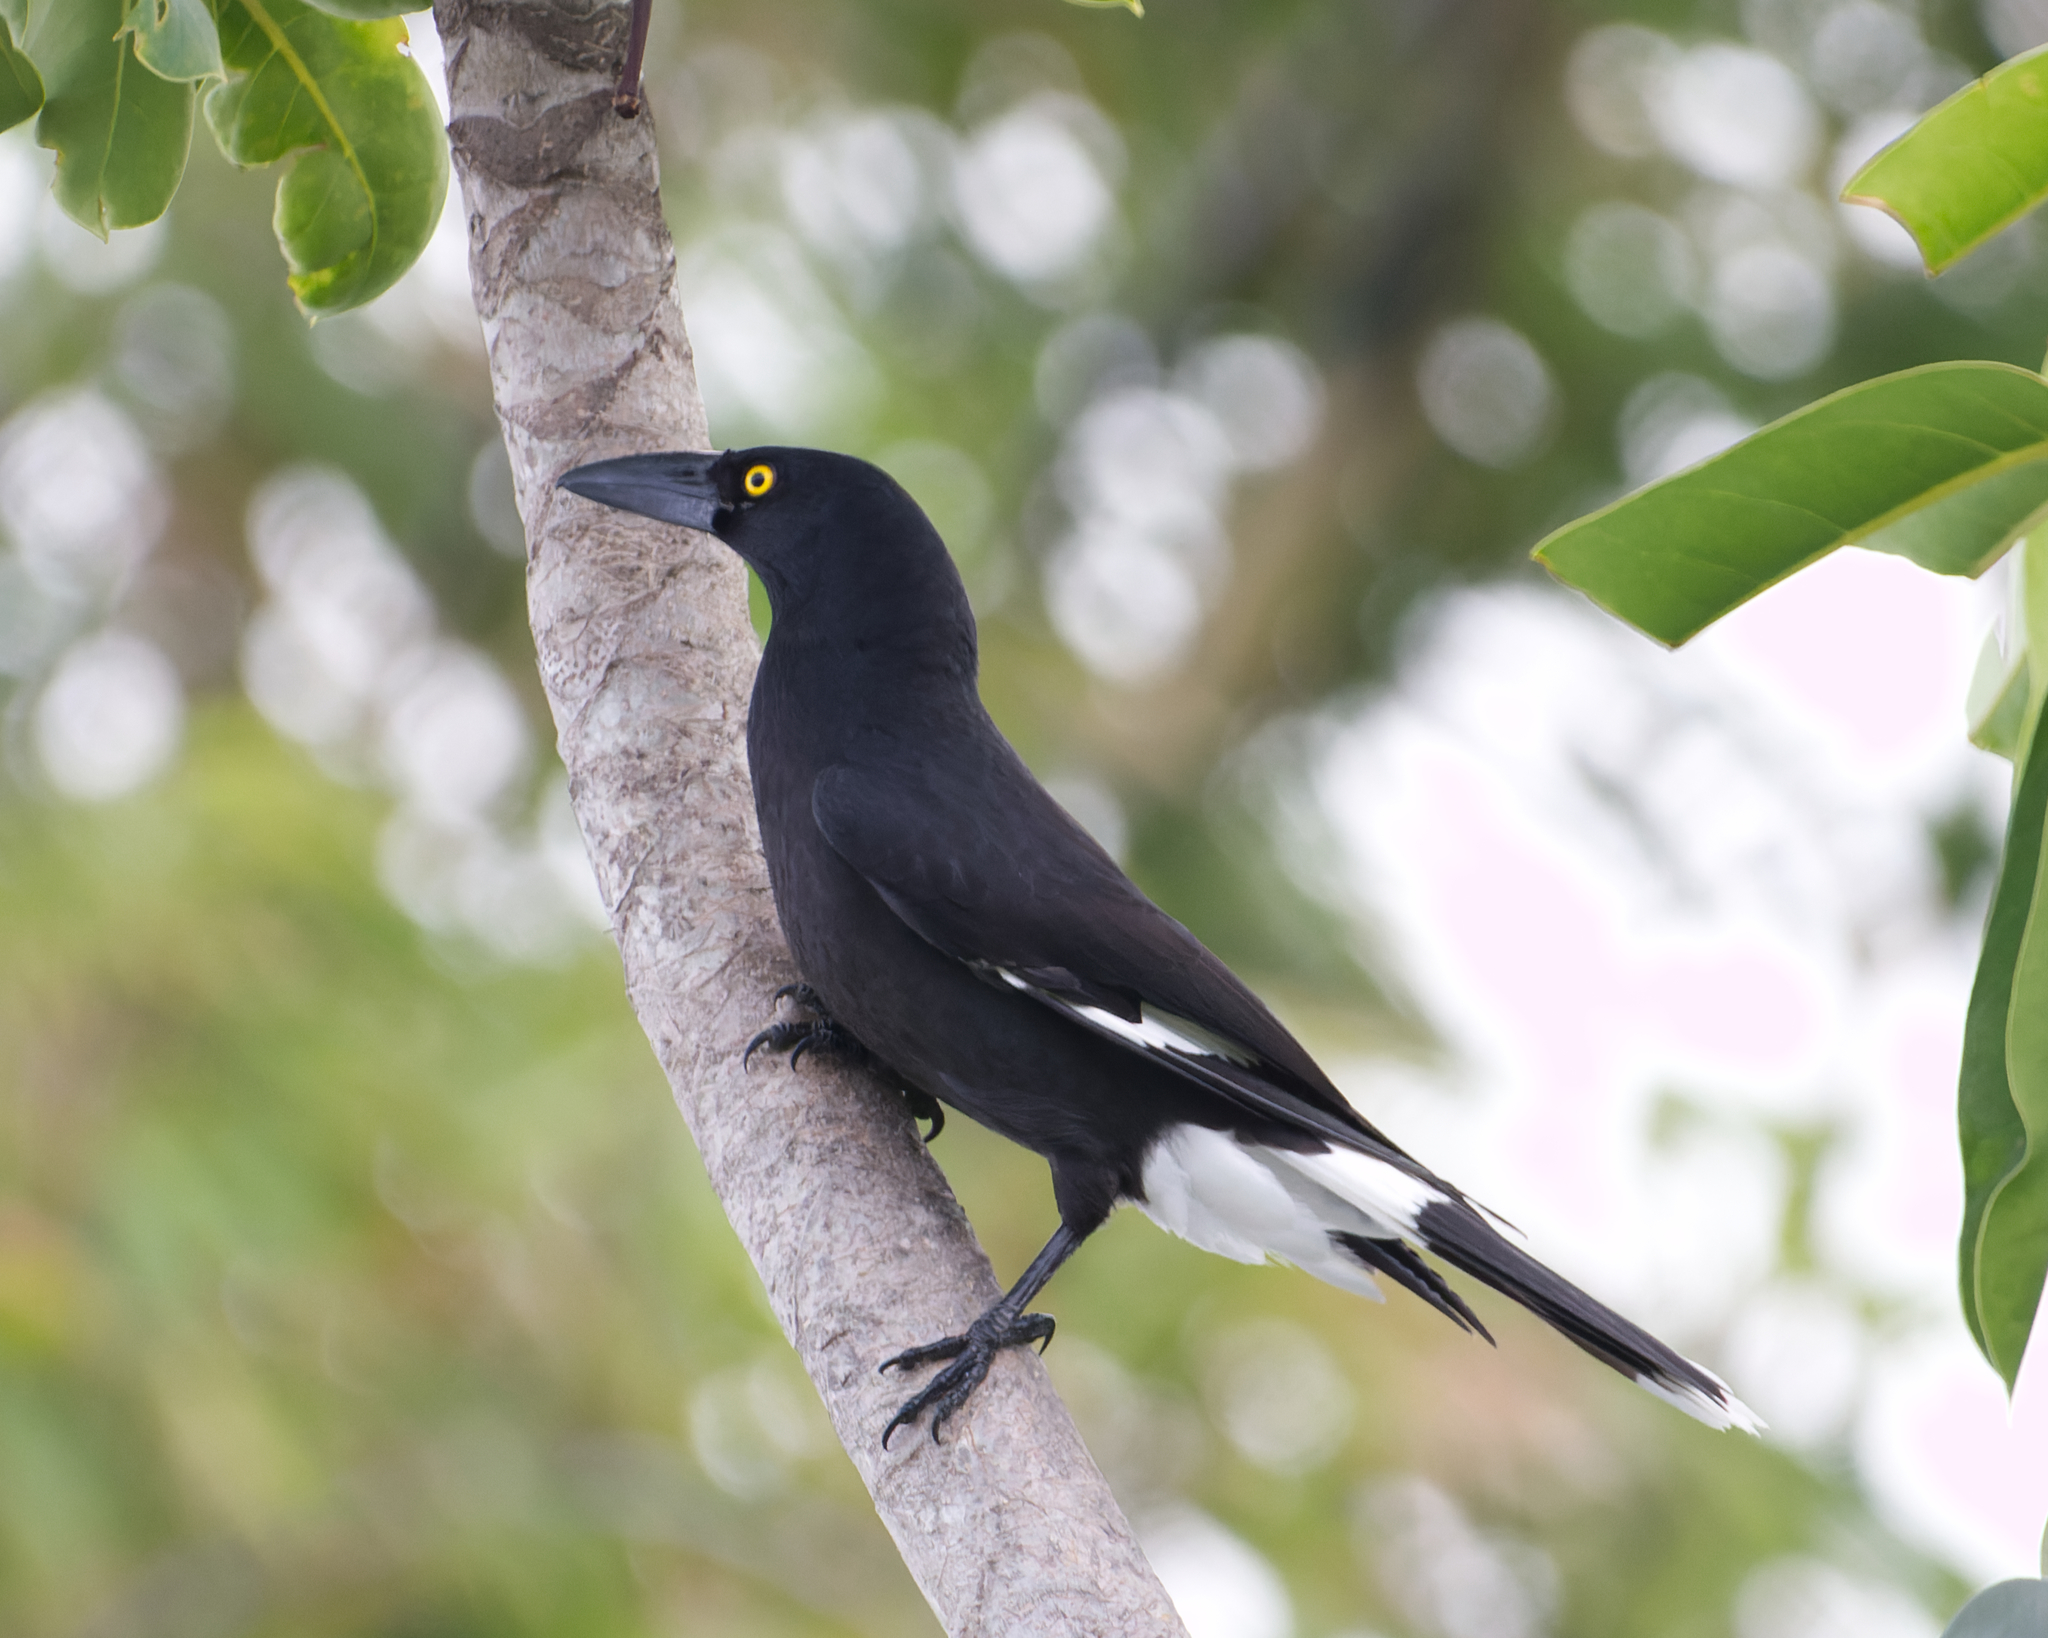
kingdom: Animalia
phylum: Chordata
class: Aves
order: Passeriformes
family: Cracticidae
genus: Strepera
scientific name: Strepera graculina
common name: Pied currawong
